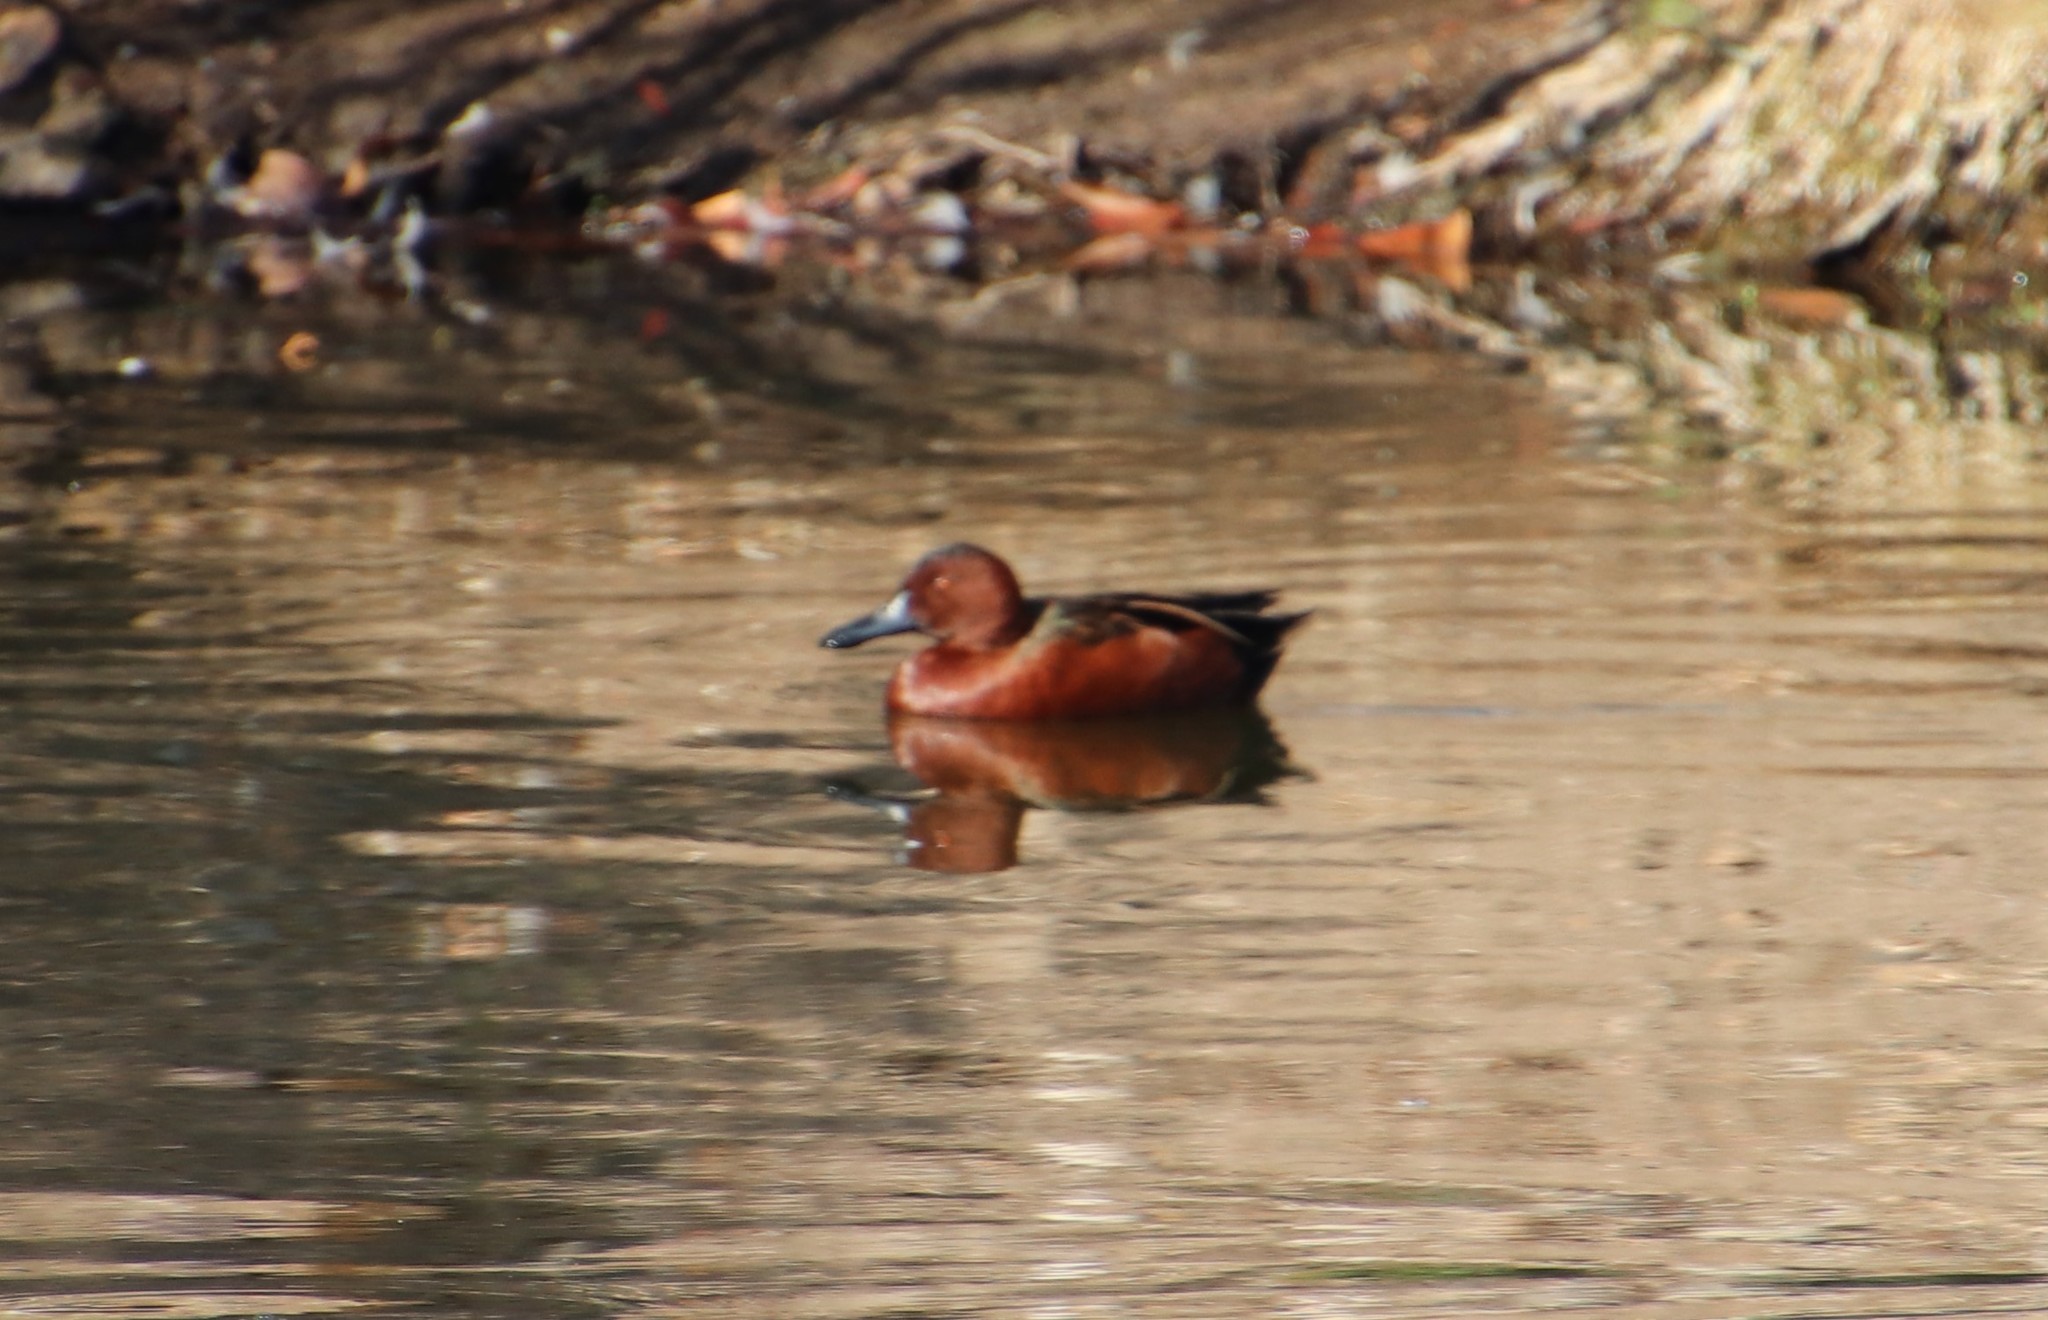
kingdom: Animalia
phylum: Chordata
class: Aves
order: Anseriformes
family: Anatidae
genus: Spatula
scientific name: Spatula cyanoptera
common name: Cinnamon teal
